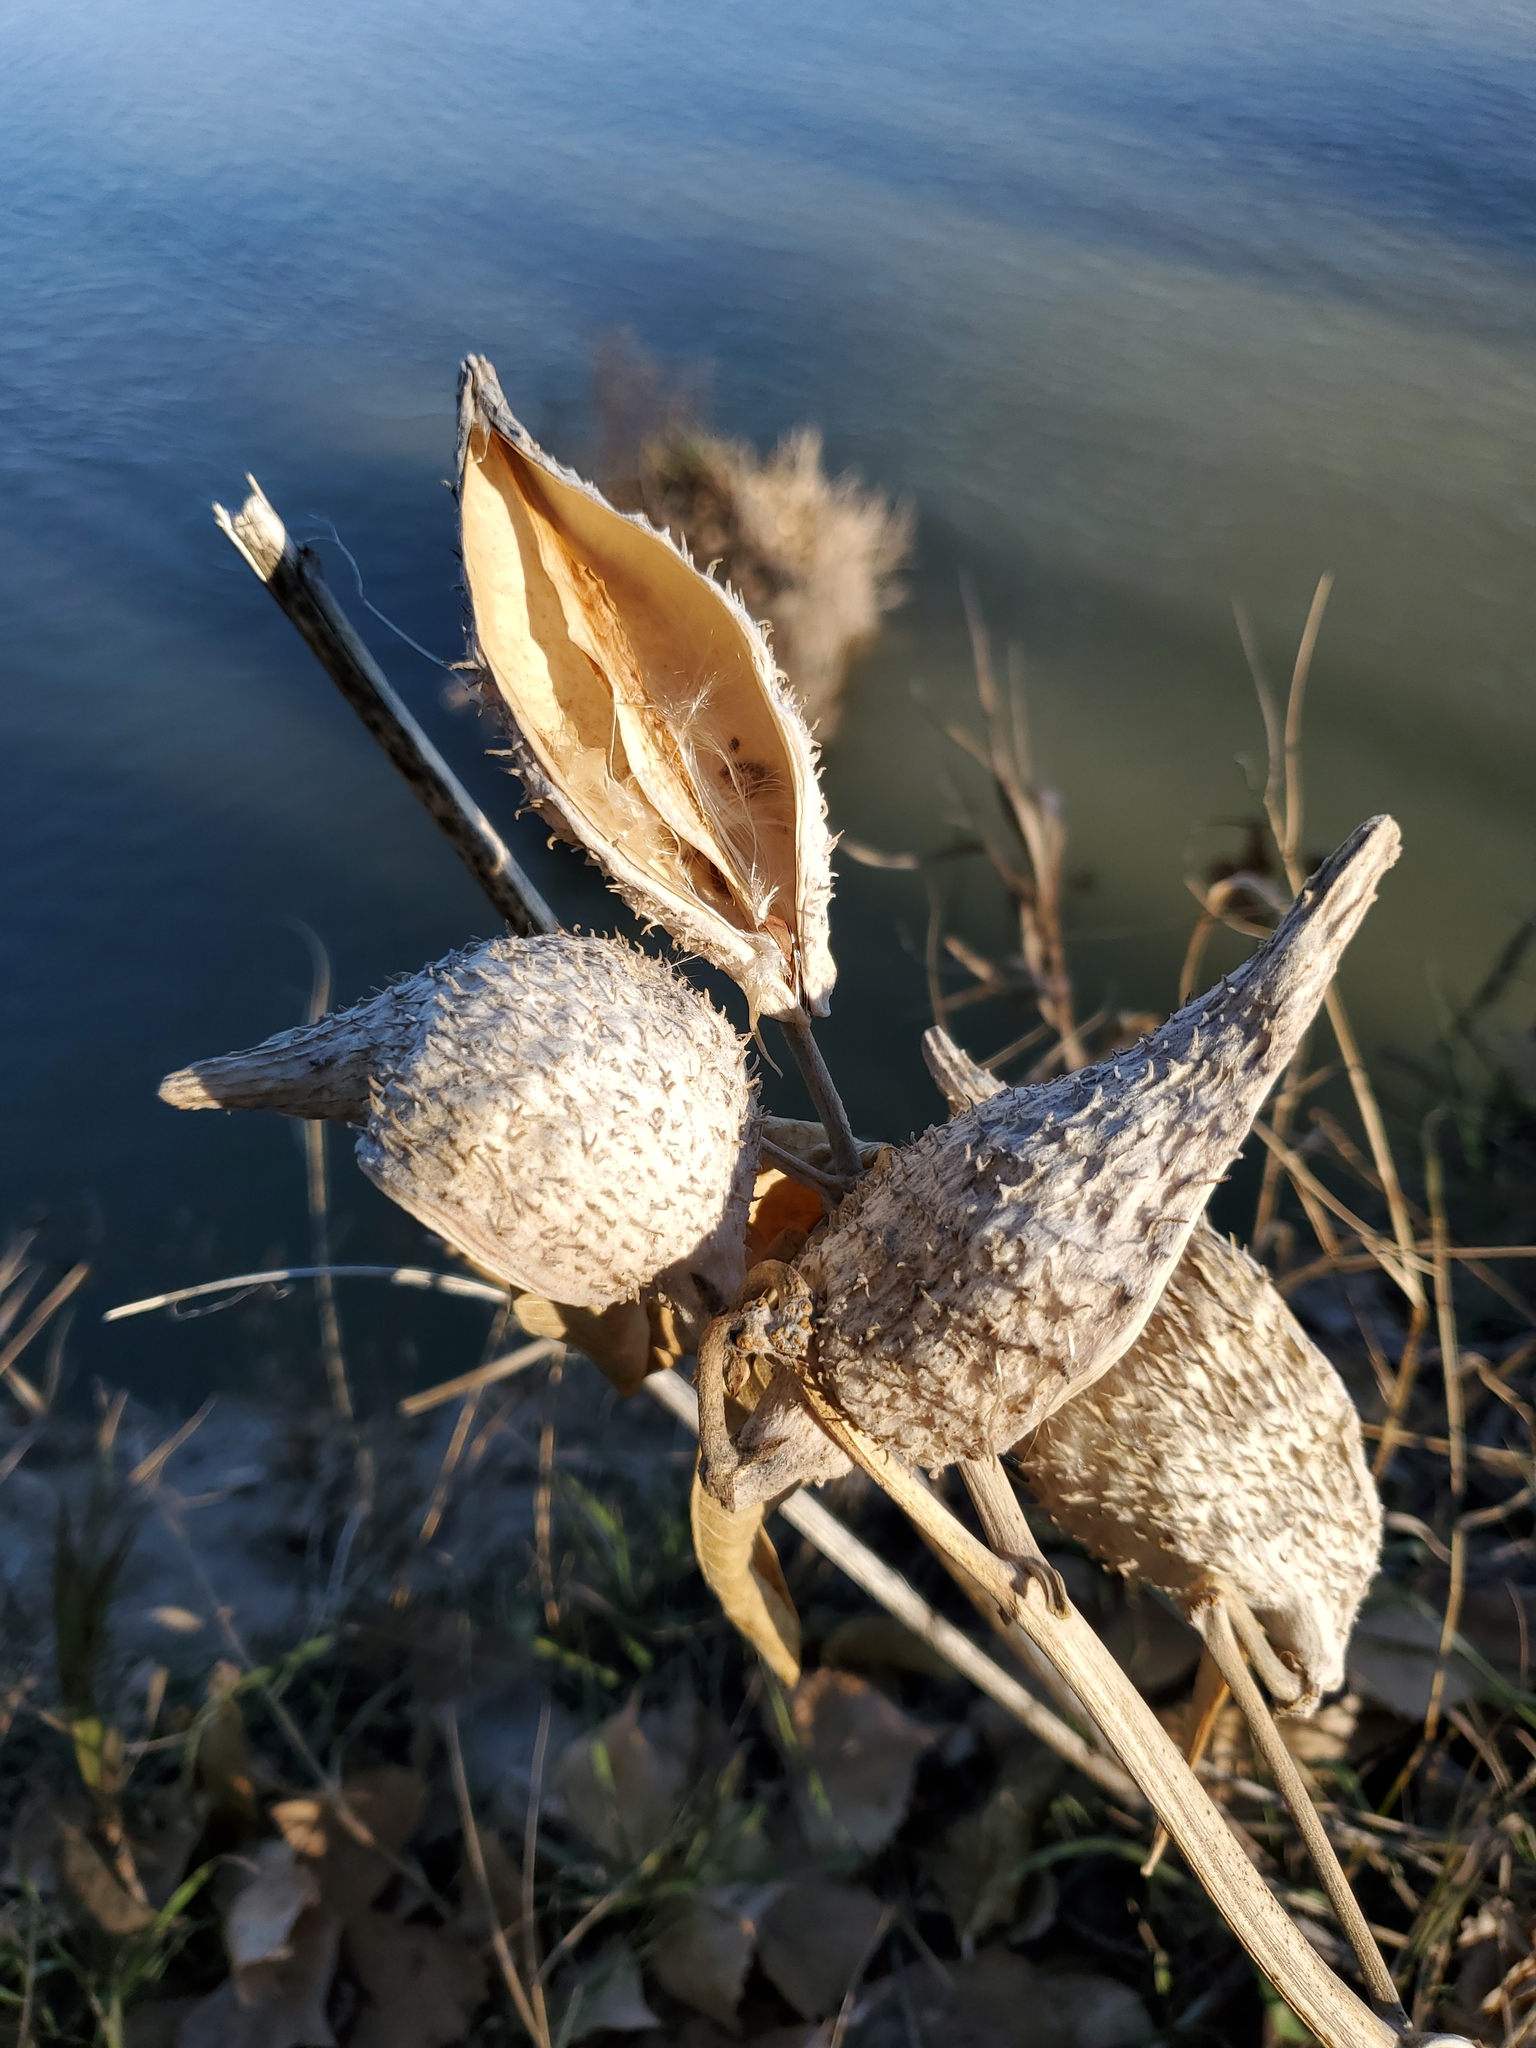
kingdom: Plantae
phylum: Tracheophyta
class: Magnoliopsida
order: Gentianales
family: Apocynaceae
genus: Asclepias
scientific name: Asclepias speciosa
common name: Showy milkweed
